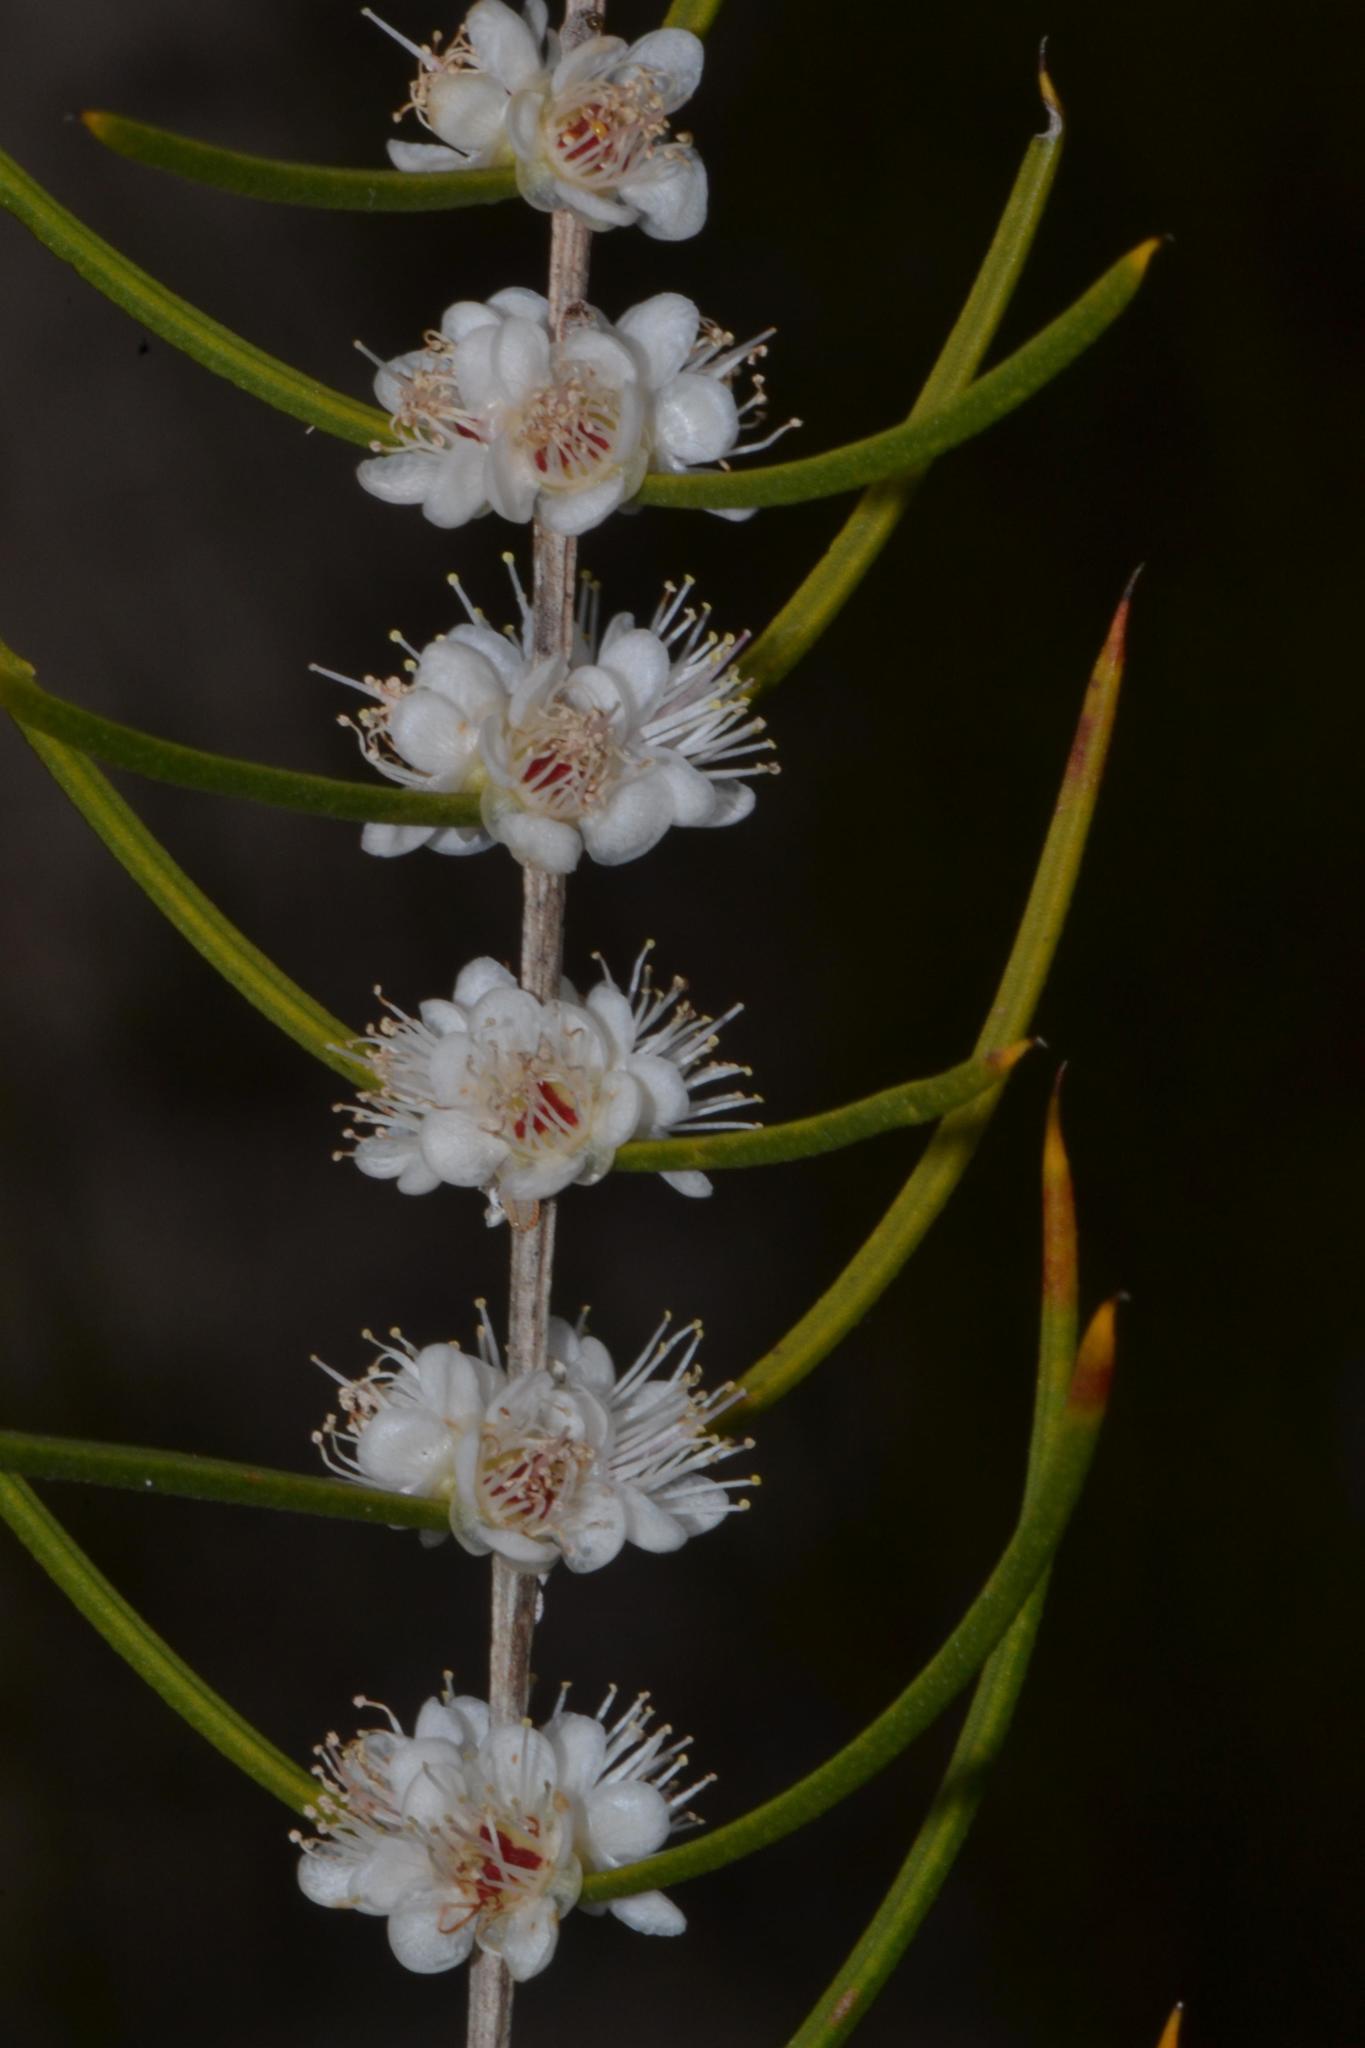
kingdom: Plantae
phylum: Tracheophyta
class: Magnoliopsida
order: Myrtales
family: Myrtaceae
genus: Hypocalymma
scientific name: Hypocalymma angustifolium
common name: White myrtle
